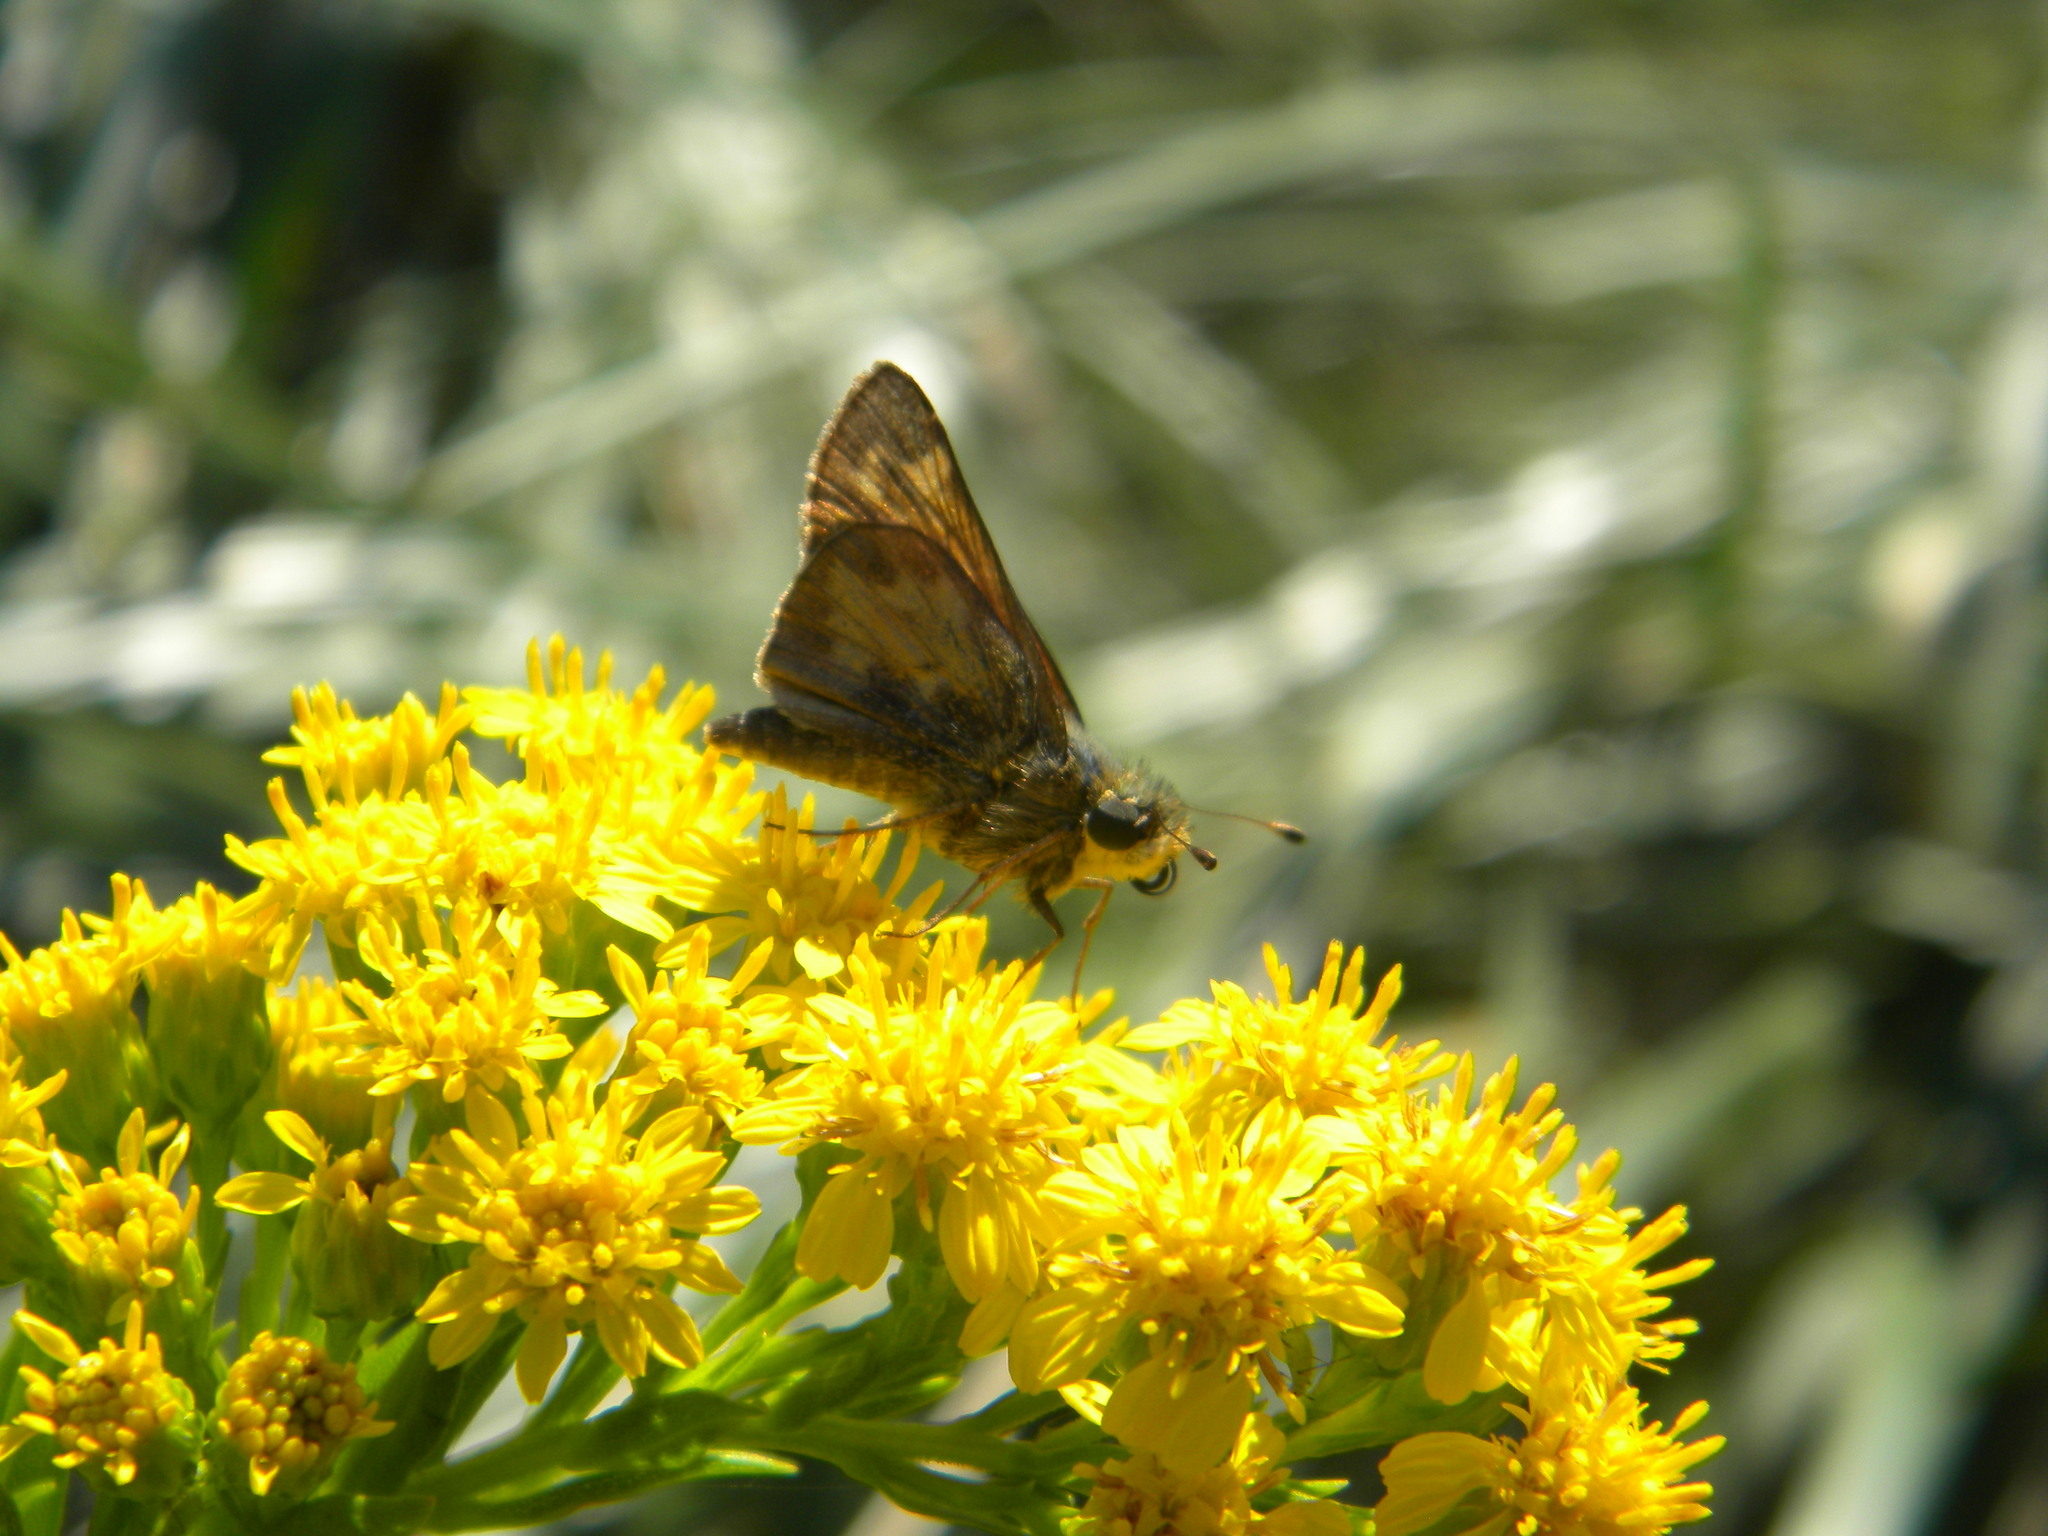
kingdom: Animalia
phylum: Arthropoda
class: Insecta
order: Lepidoptera
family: Hesperiidae
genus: Atalopedes
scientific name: Atalopedes
